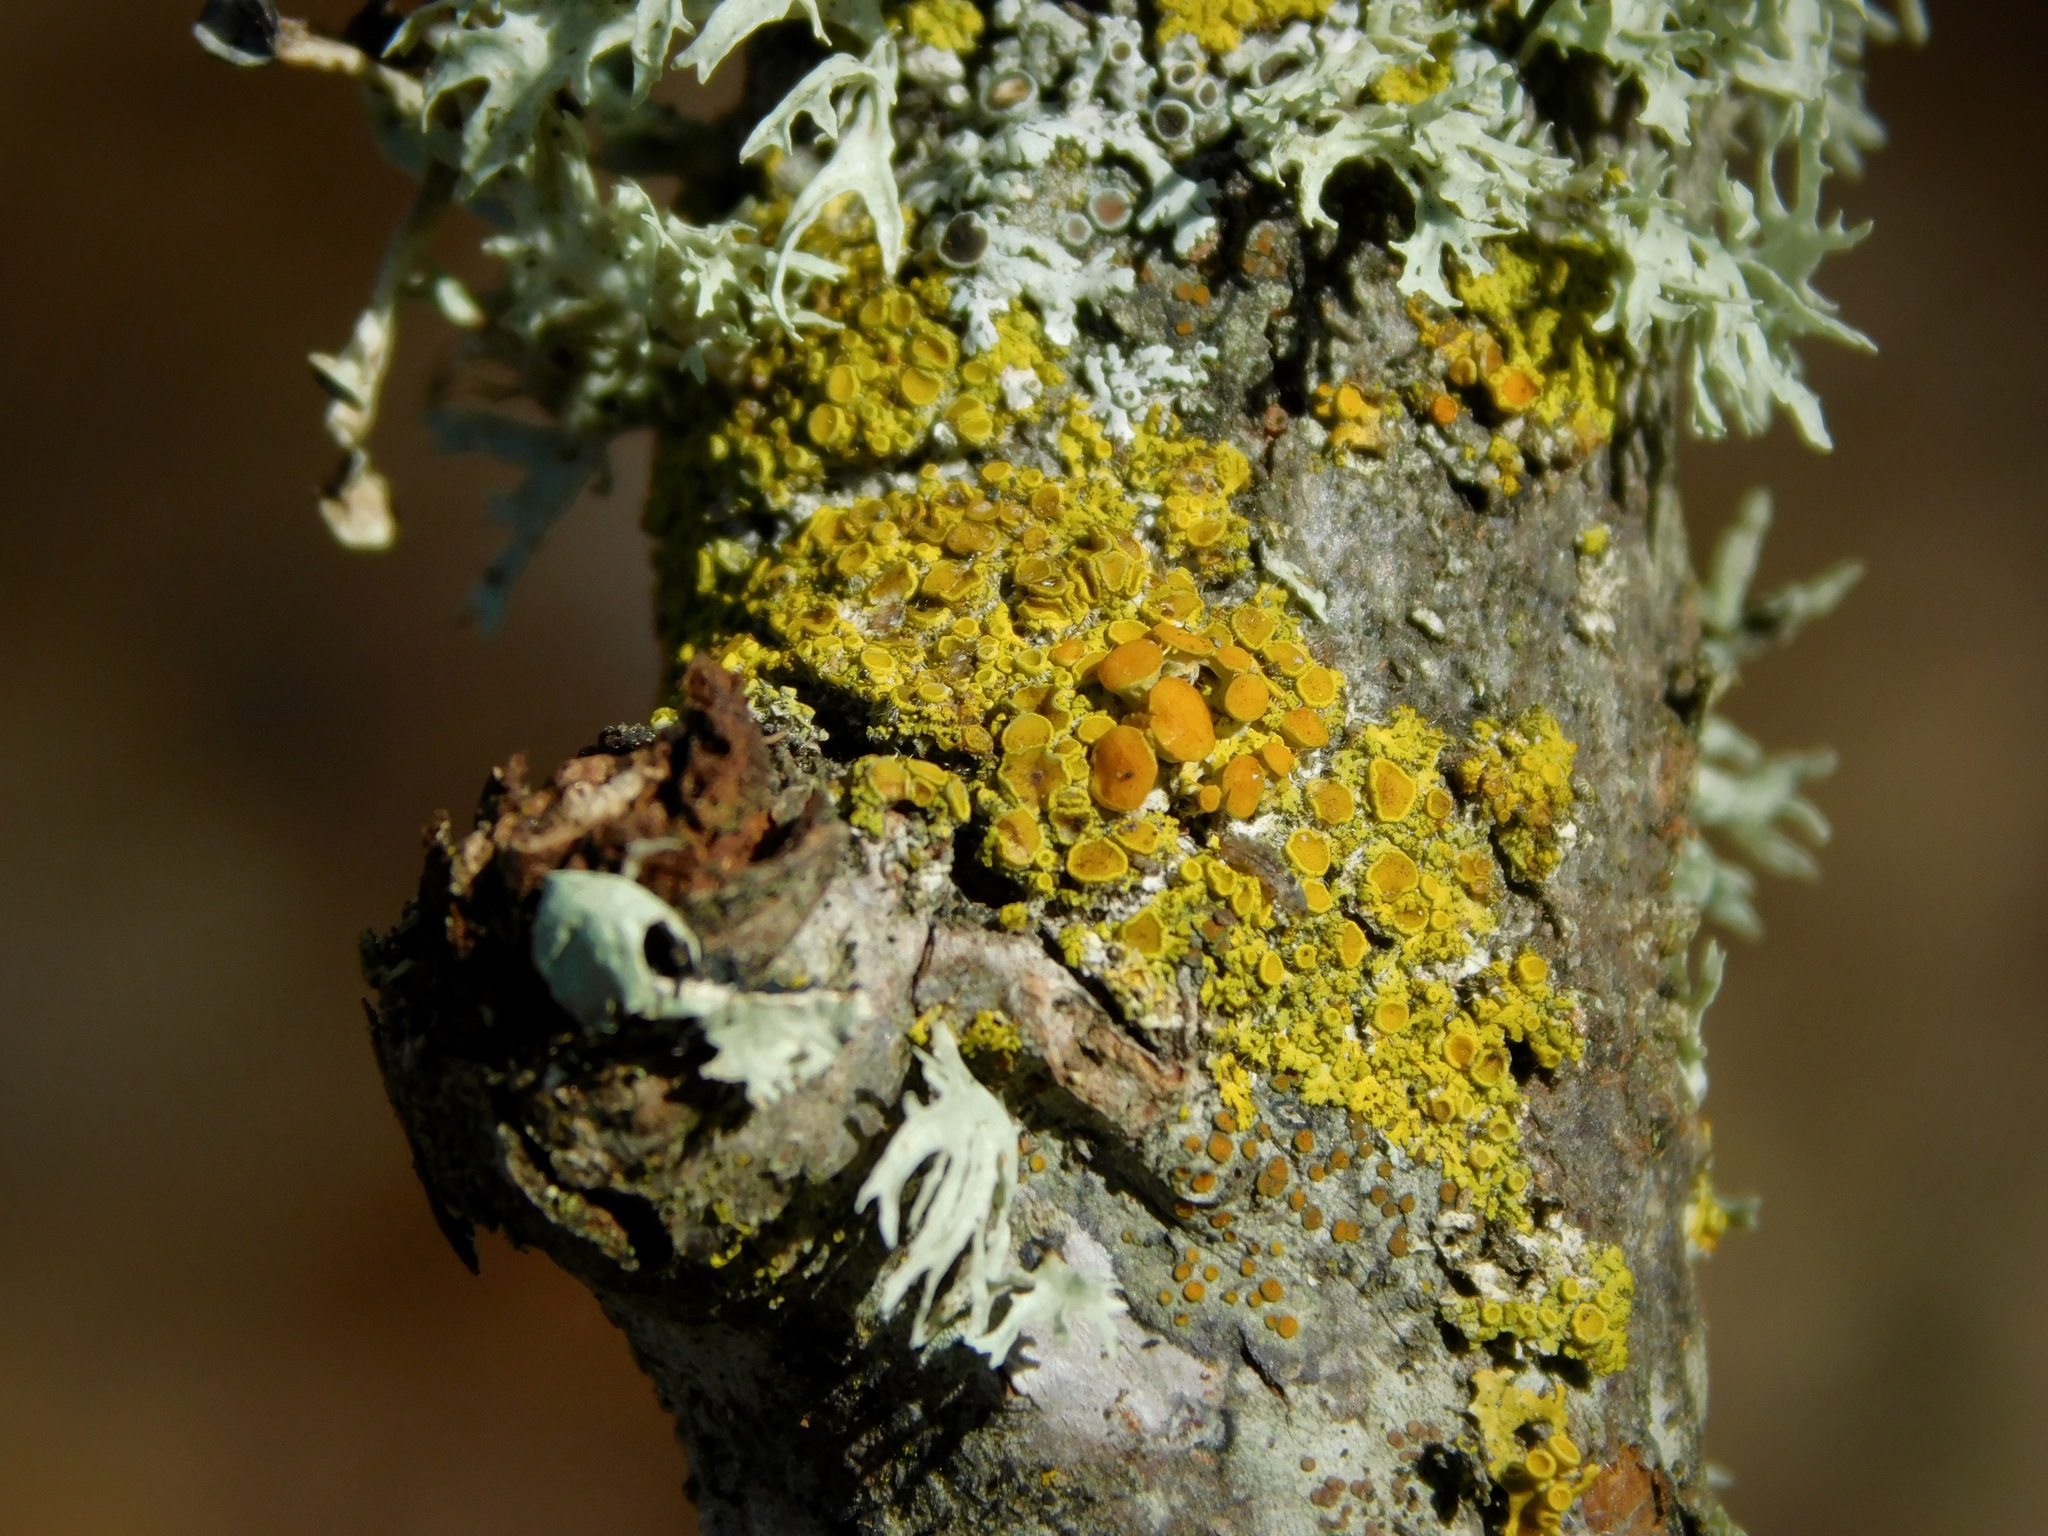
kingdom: Fungi
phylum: Ascomycota
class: Lecanoromycetes
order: Teloschistales
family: Teloschistaceae
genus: Gallowayella
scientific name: Gallowayella hasseana
